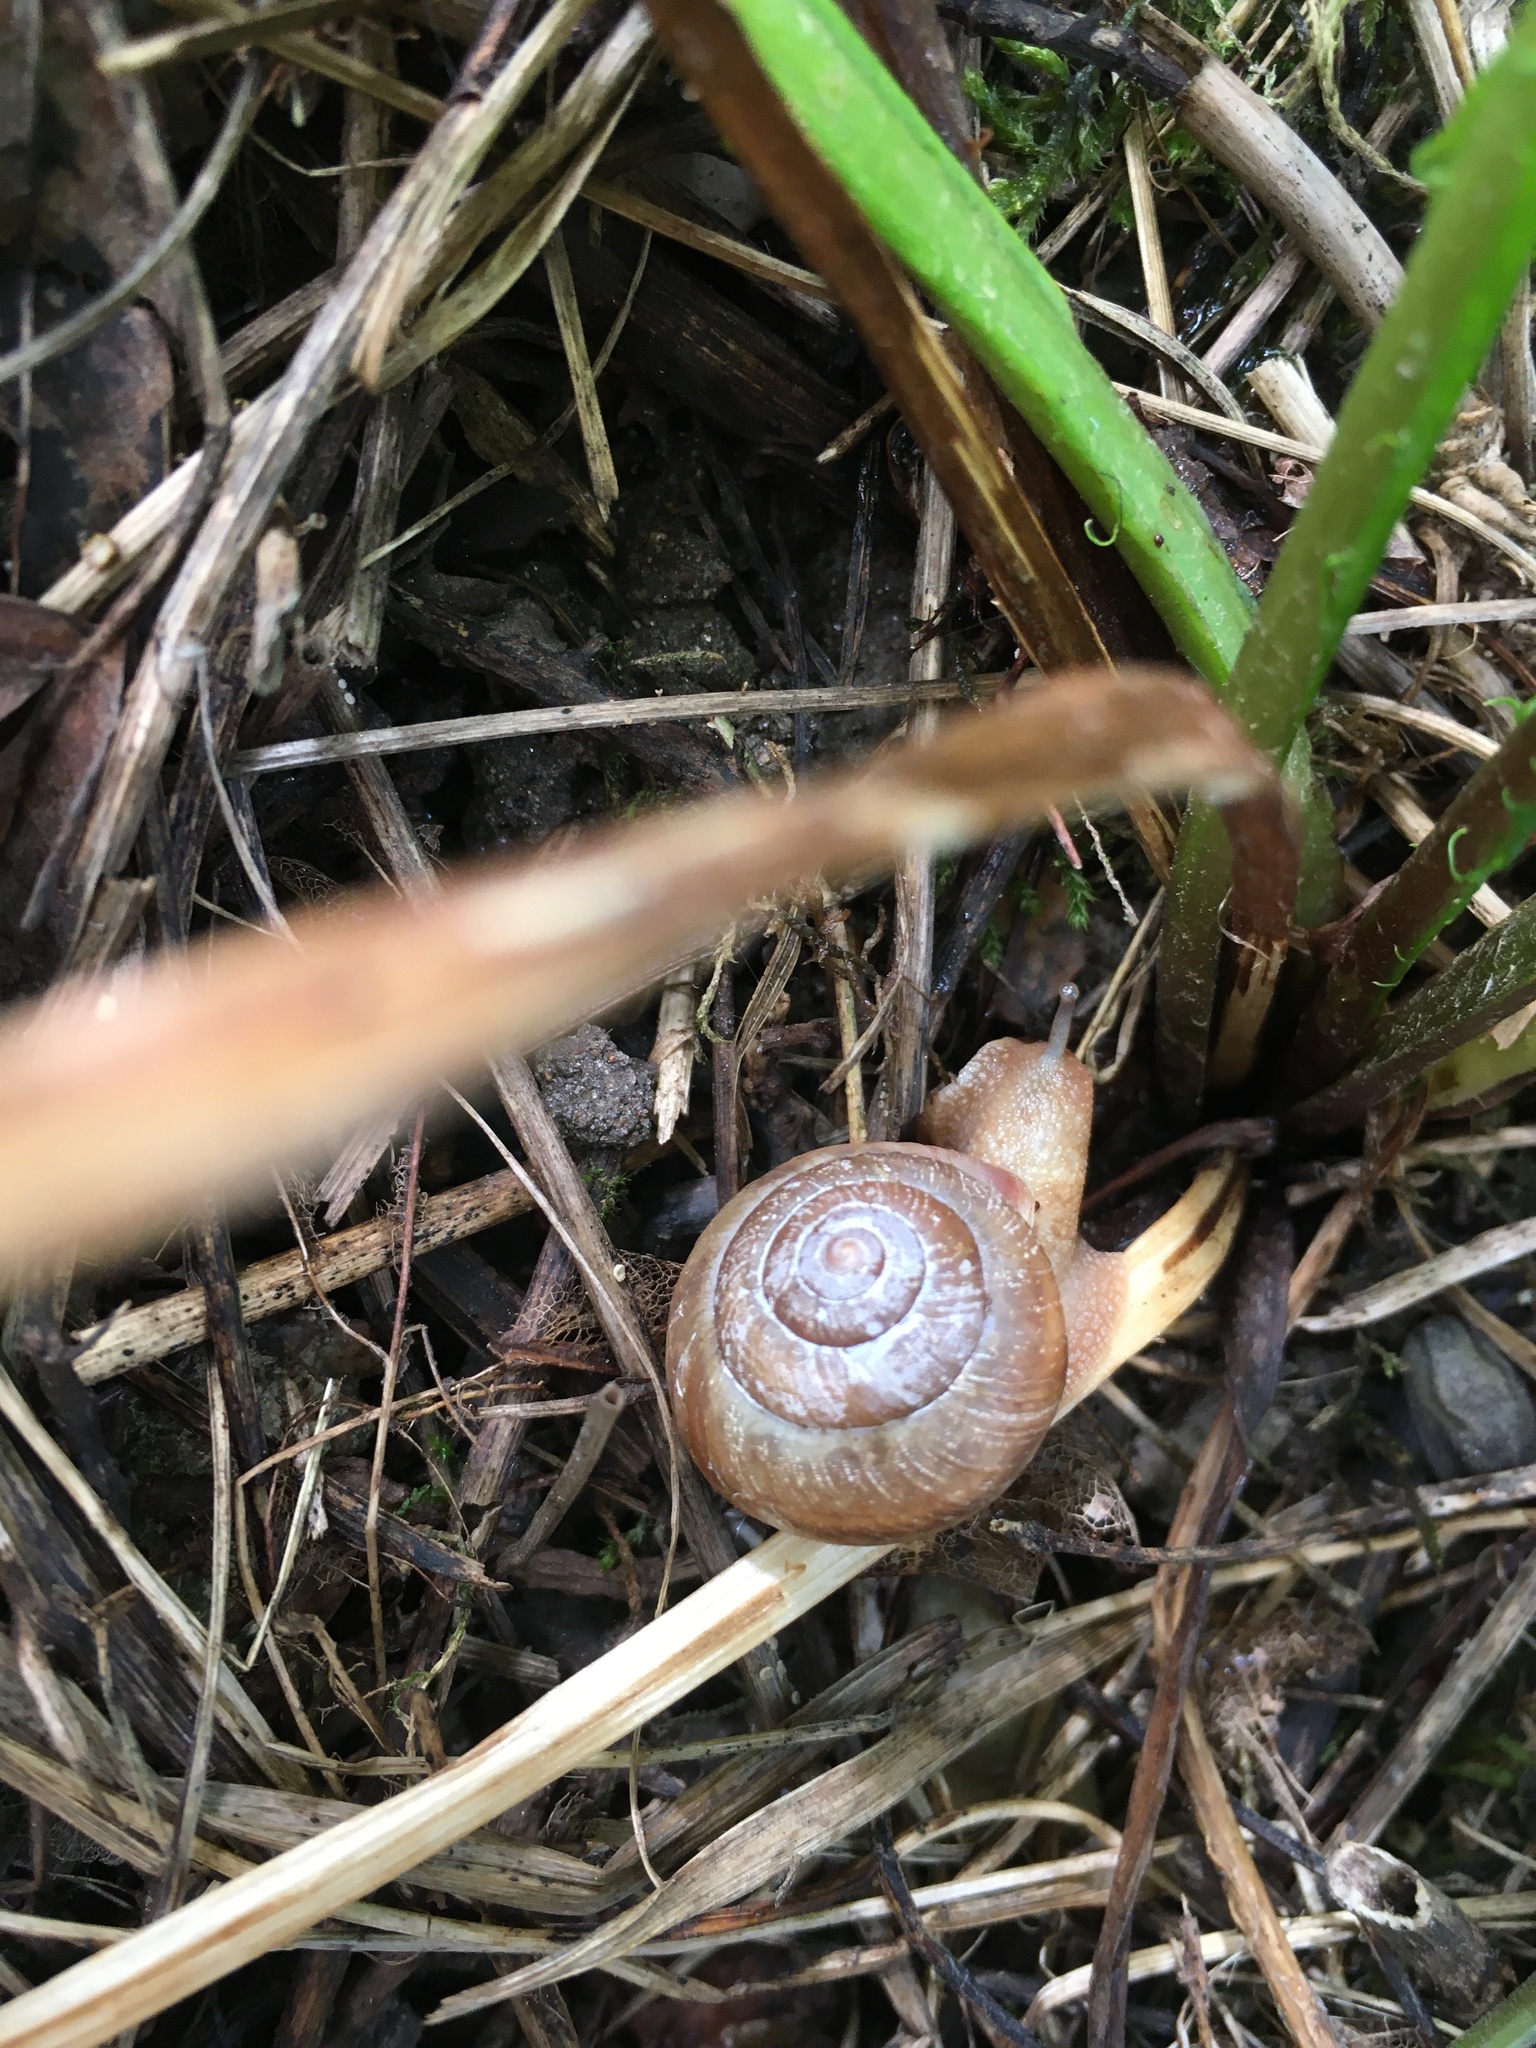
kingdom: Animalia
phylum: Mollusca
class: Gastropoda
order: Stylommatophora
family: Camaenidae
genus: Fruticicola
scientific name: Fruticicola fruticum
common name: Bush snail
